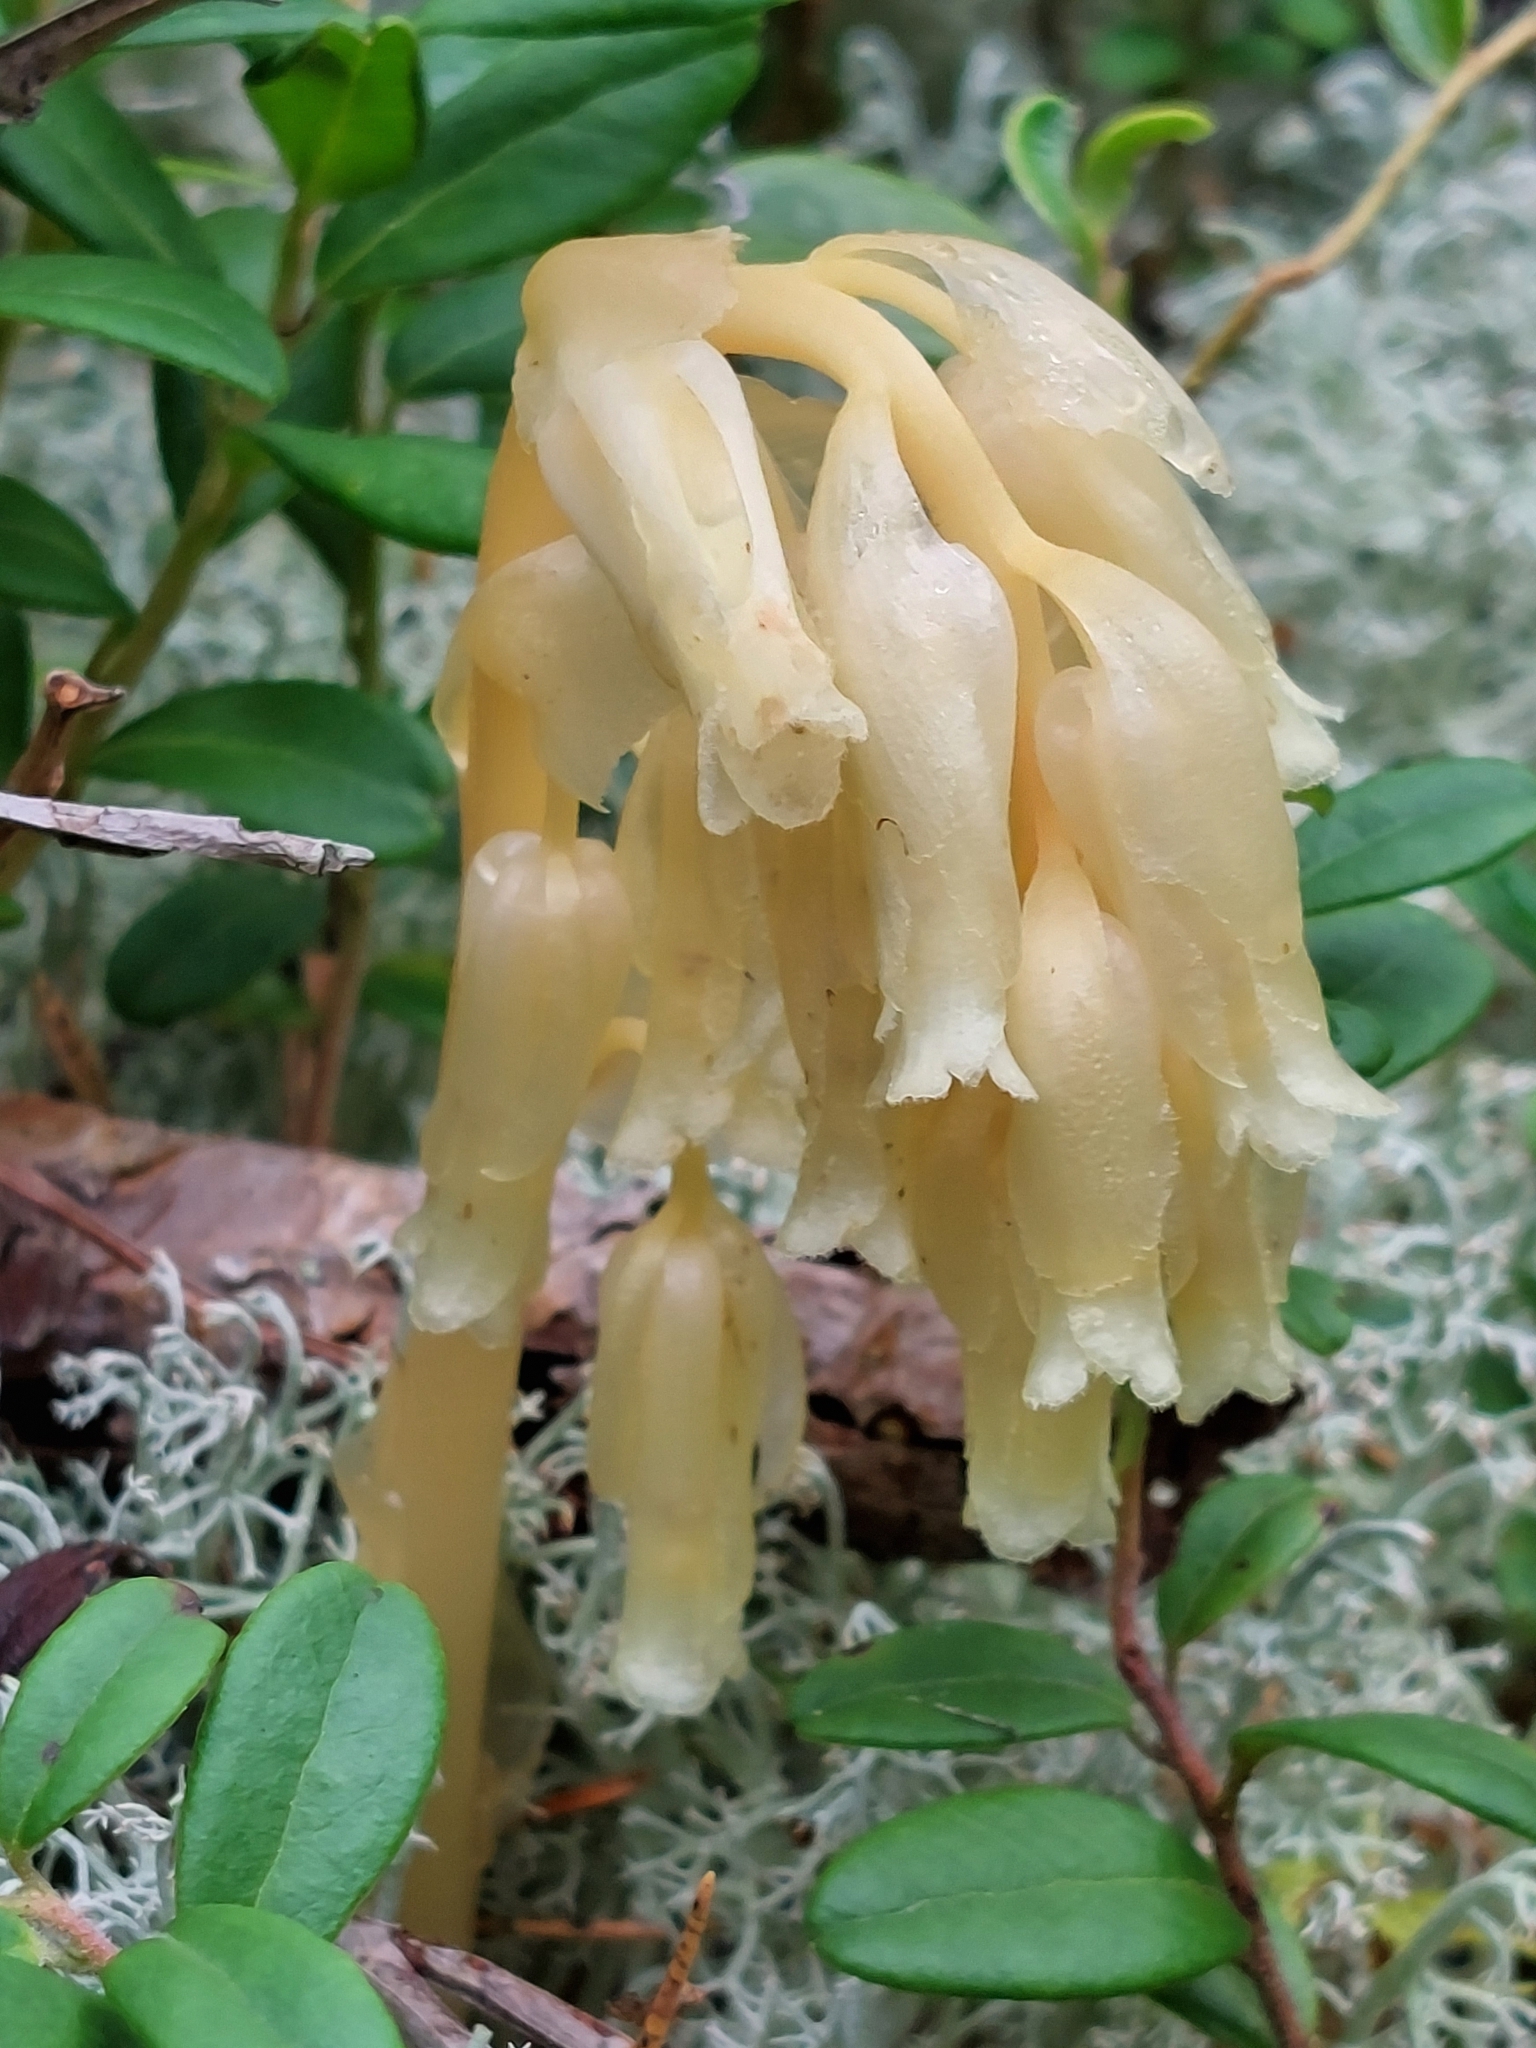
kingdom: Plantae
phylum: Tracheophyta
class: Magnoliopsida
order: Ericales
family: Ericaceae
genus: Hypopitys
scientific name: Hypopitys monotropa
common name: Yellow bird's-nest
